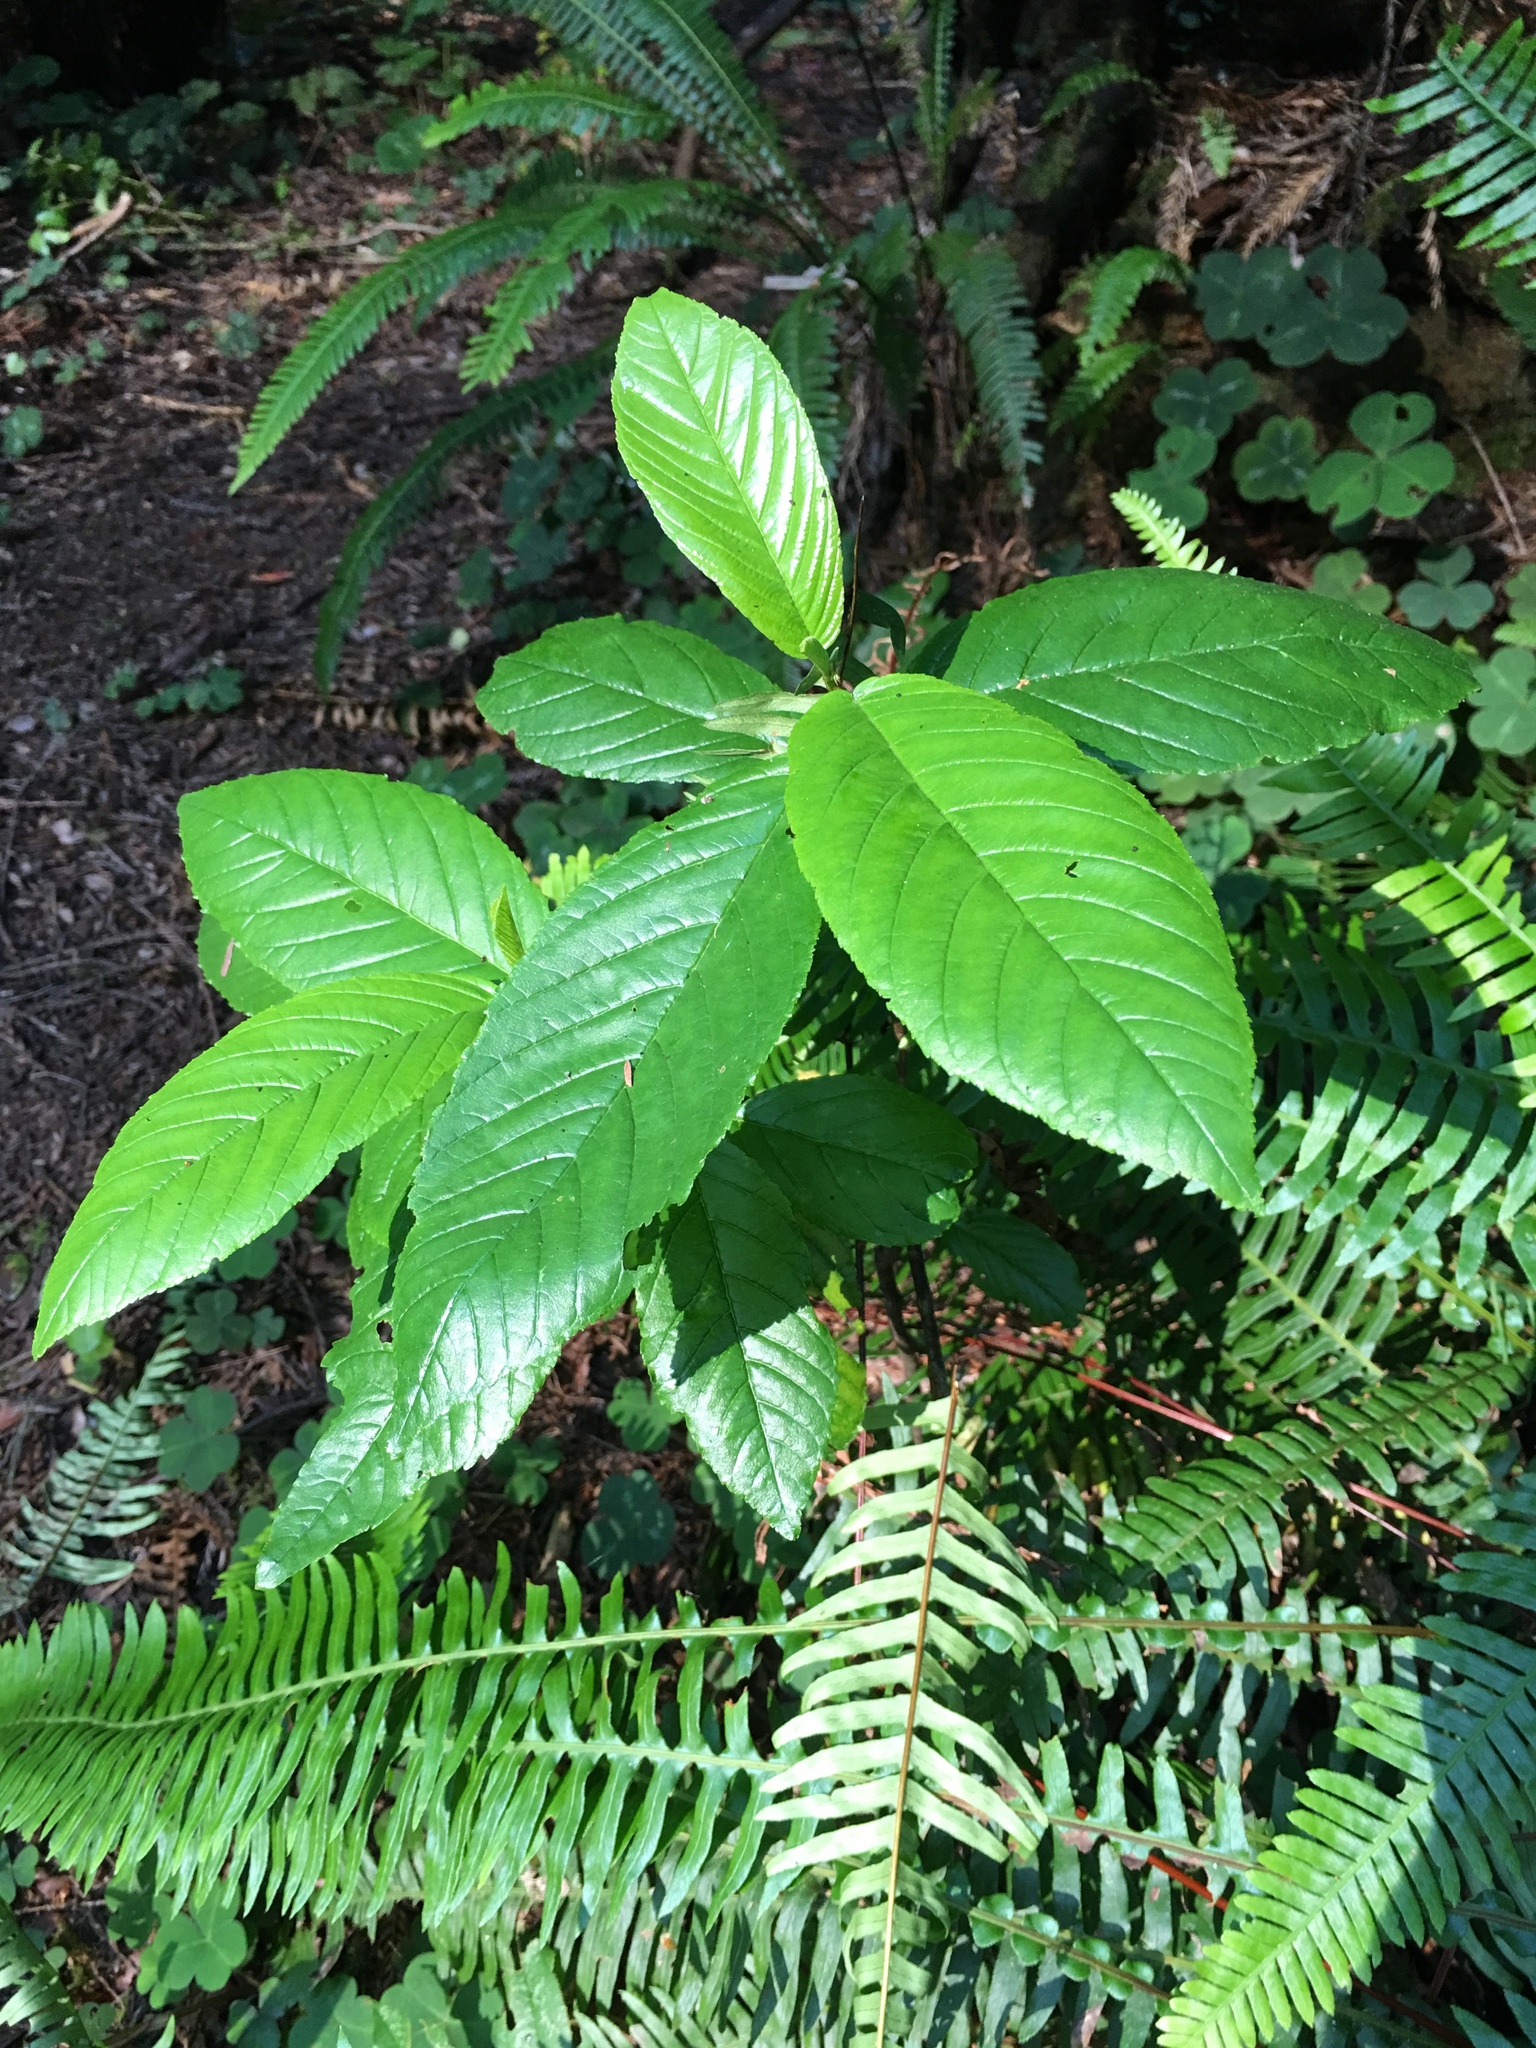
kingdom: Plantae
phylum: Tracheophyta
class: Magnoliopsida
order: Rosales
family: Rhamnaceae
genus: Frangula
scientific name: Frangula purshiana
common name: Cascara buckthorn
